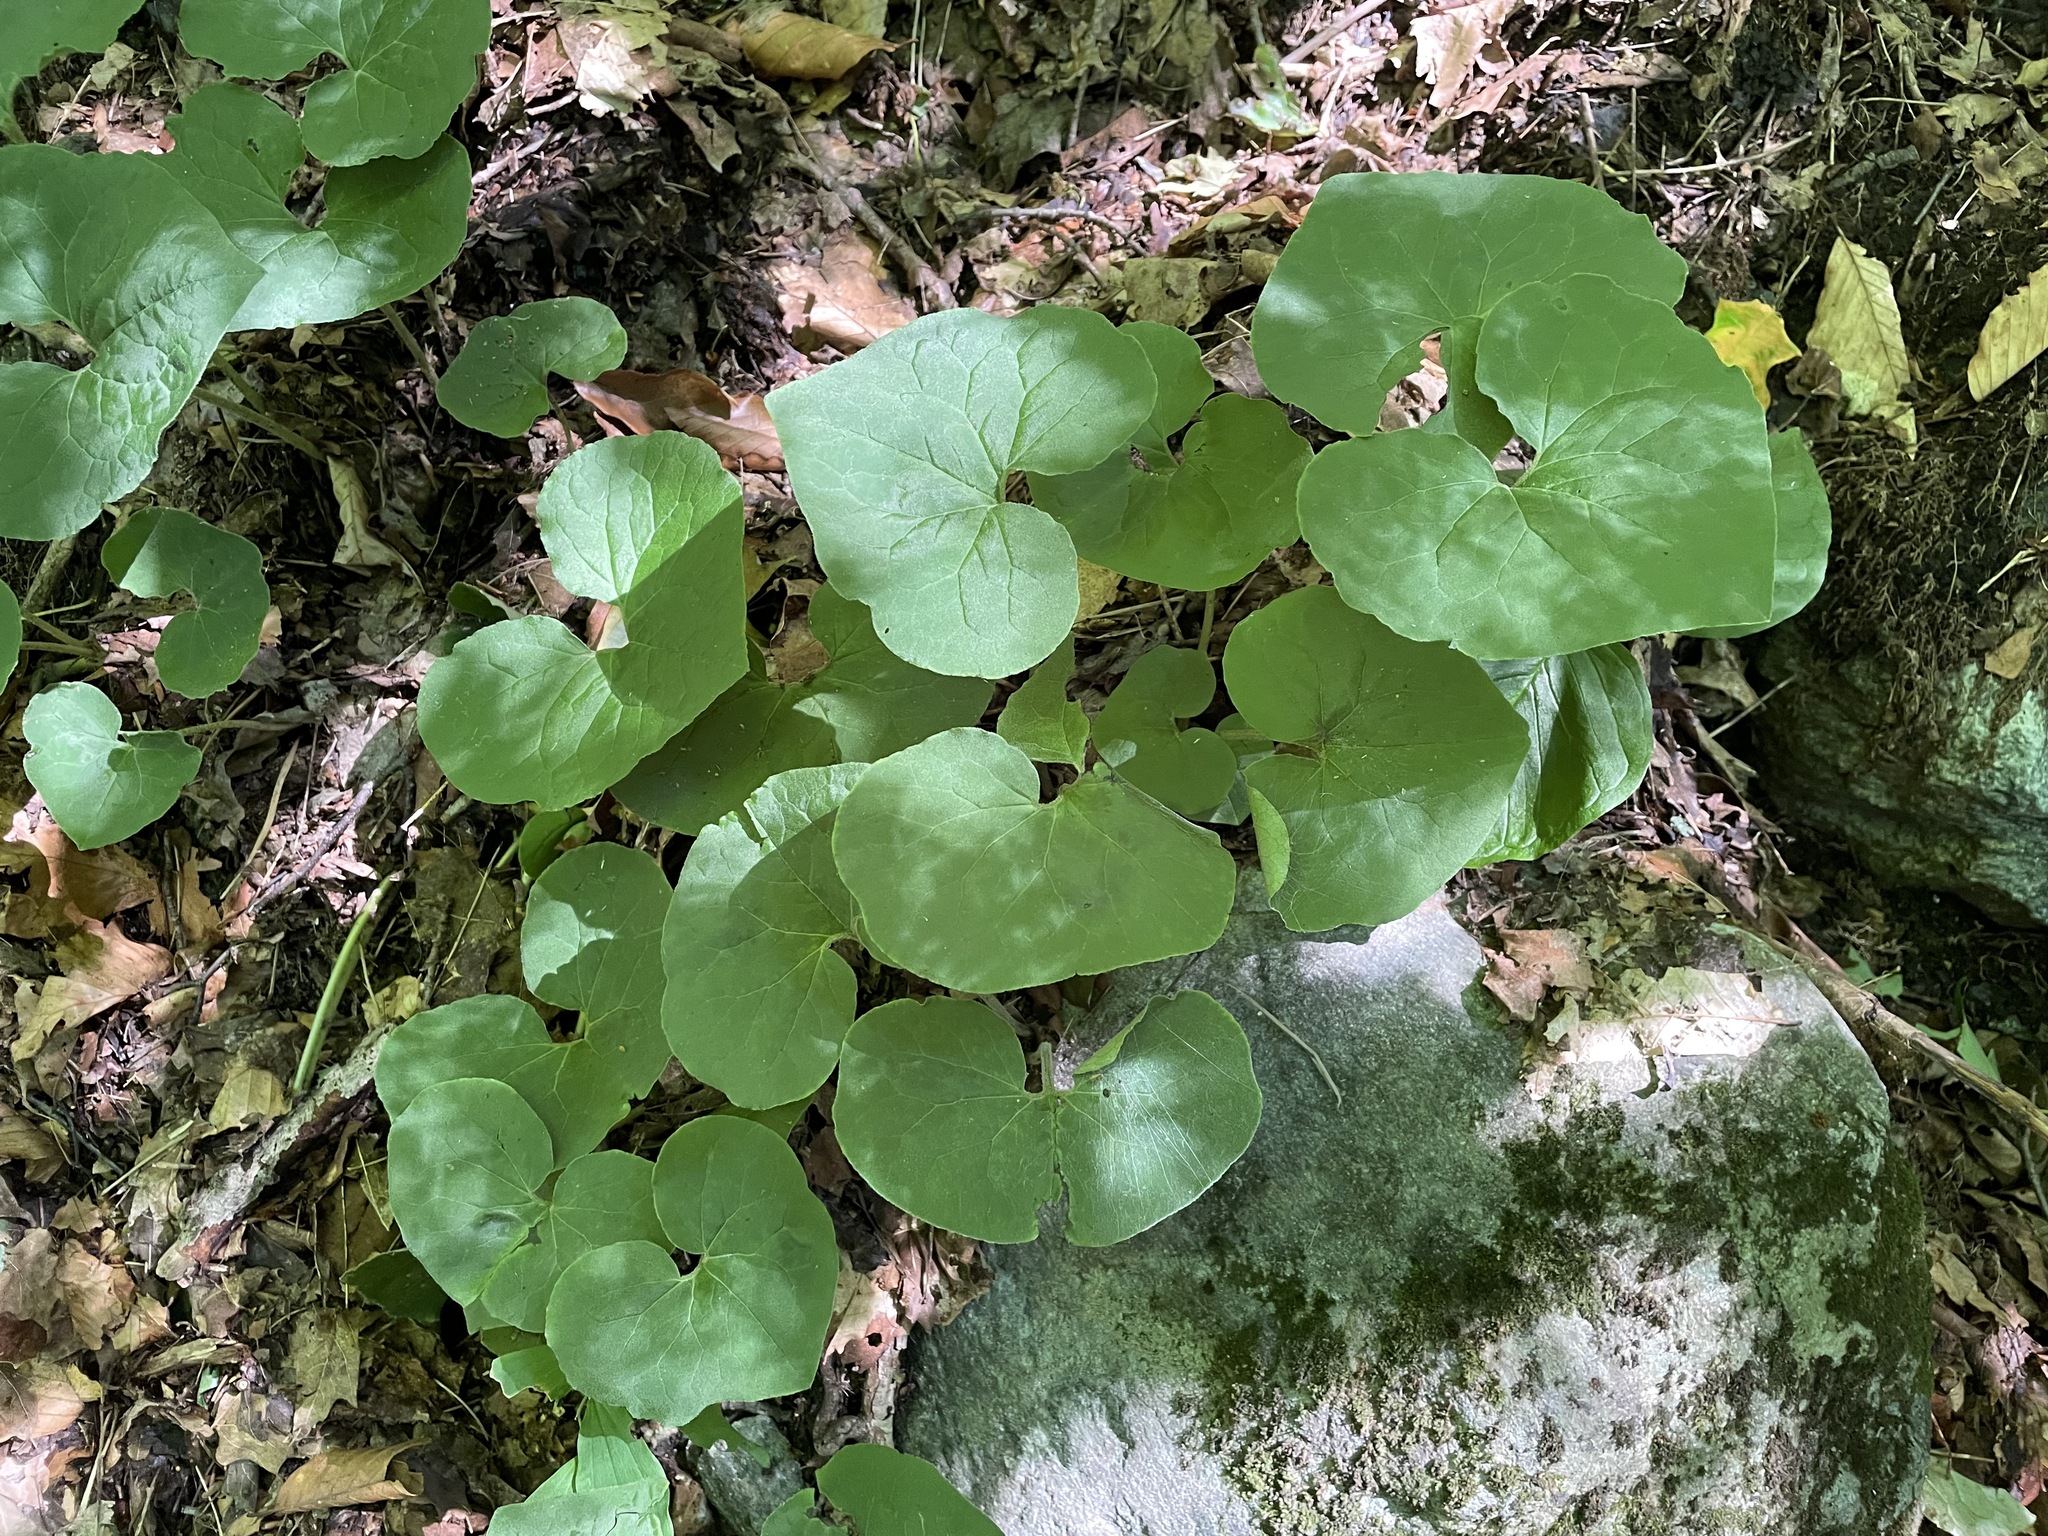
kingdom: Plantae
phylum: Tracheophyta
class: Magnoliopsida
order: Piperales
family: Aristolochiaceae
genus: Asarum
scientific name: Asarum canadense
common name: Wild ginger
